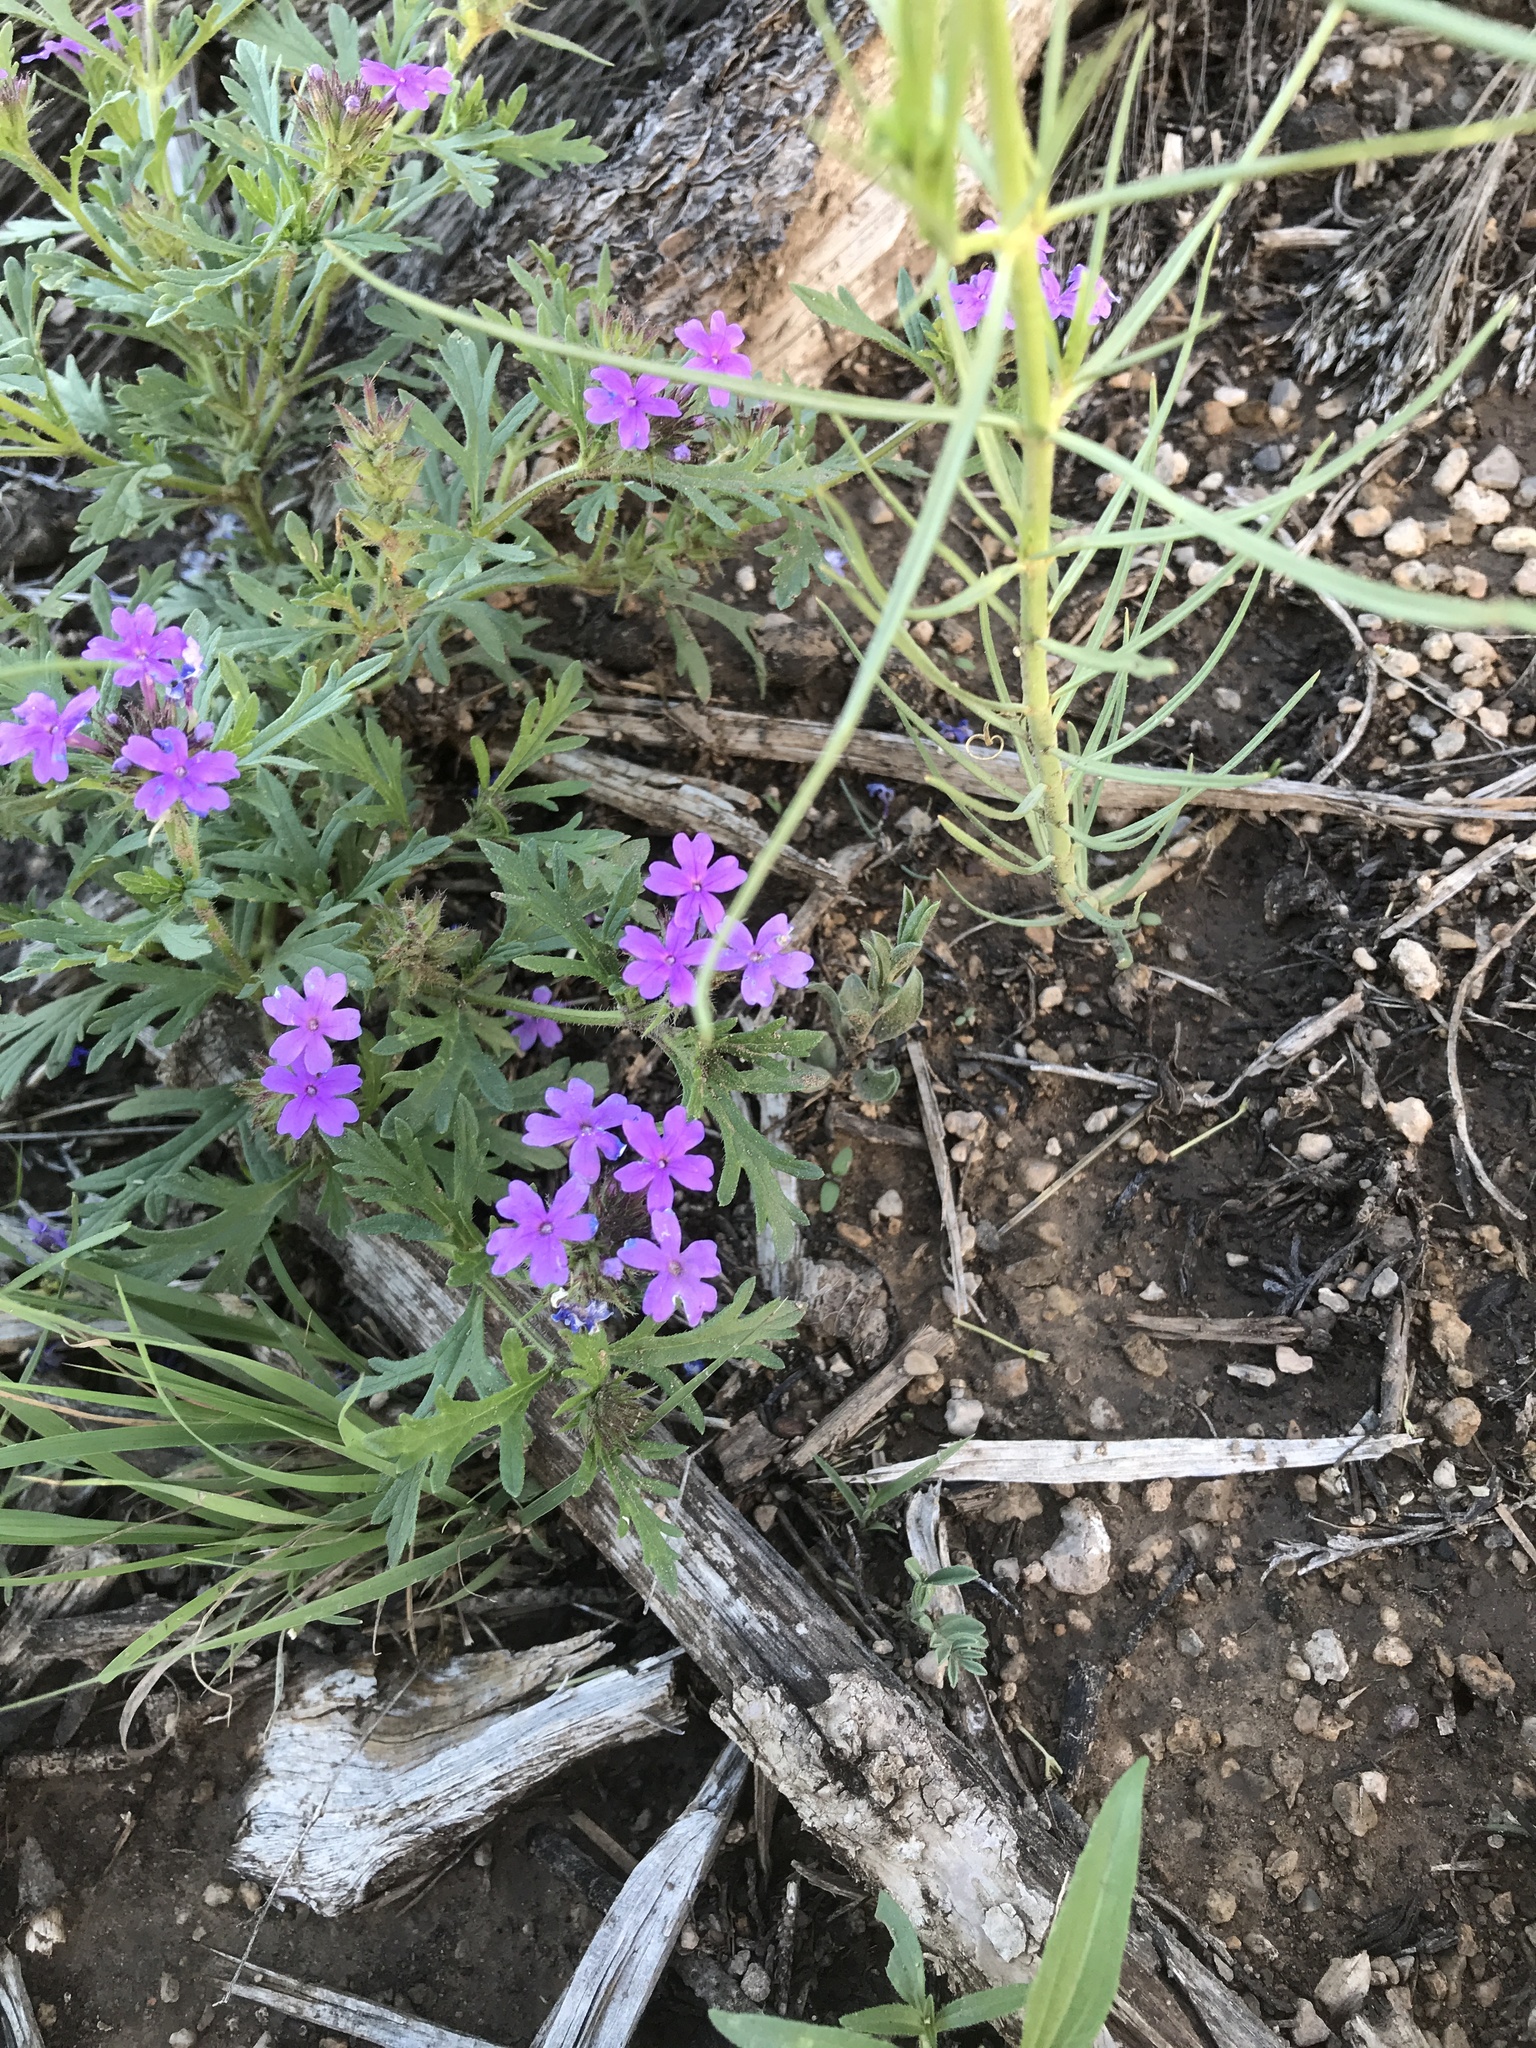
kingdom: Plantae
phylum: Tracheophyta
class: Magnoliopsida
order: Lamiales
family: Verbenaceae
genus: Verbena
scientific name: Verbena bipinnatifida
